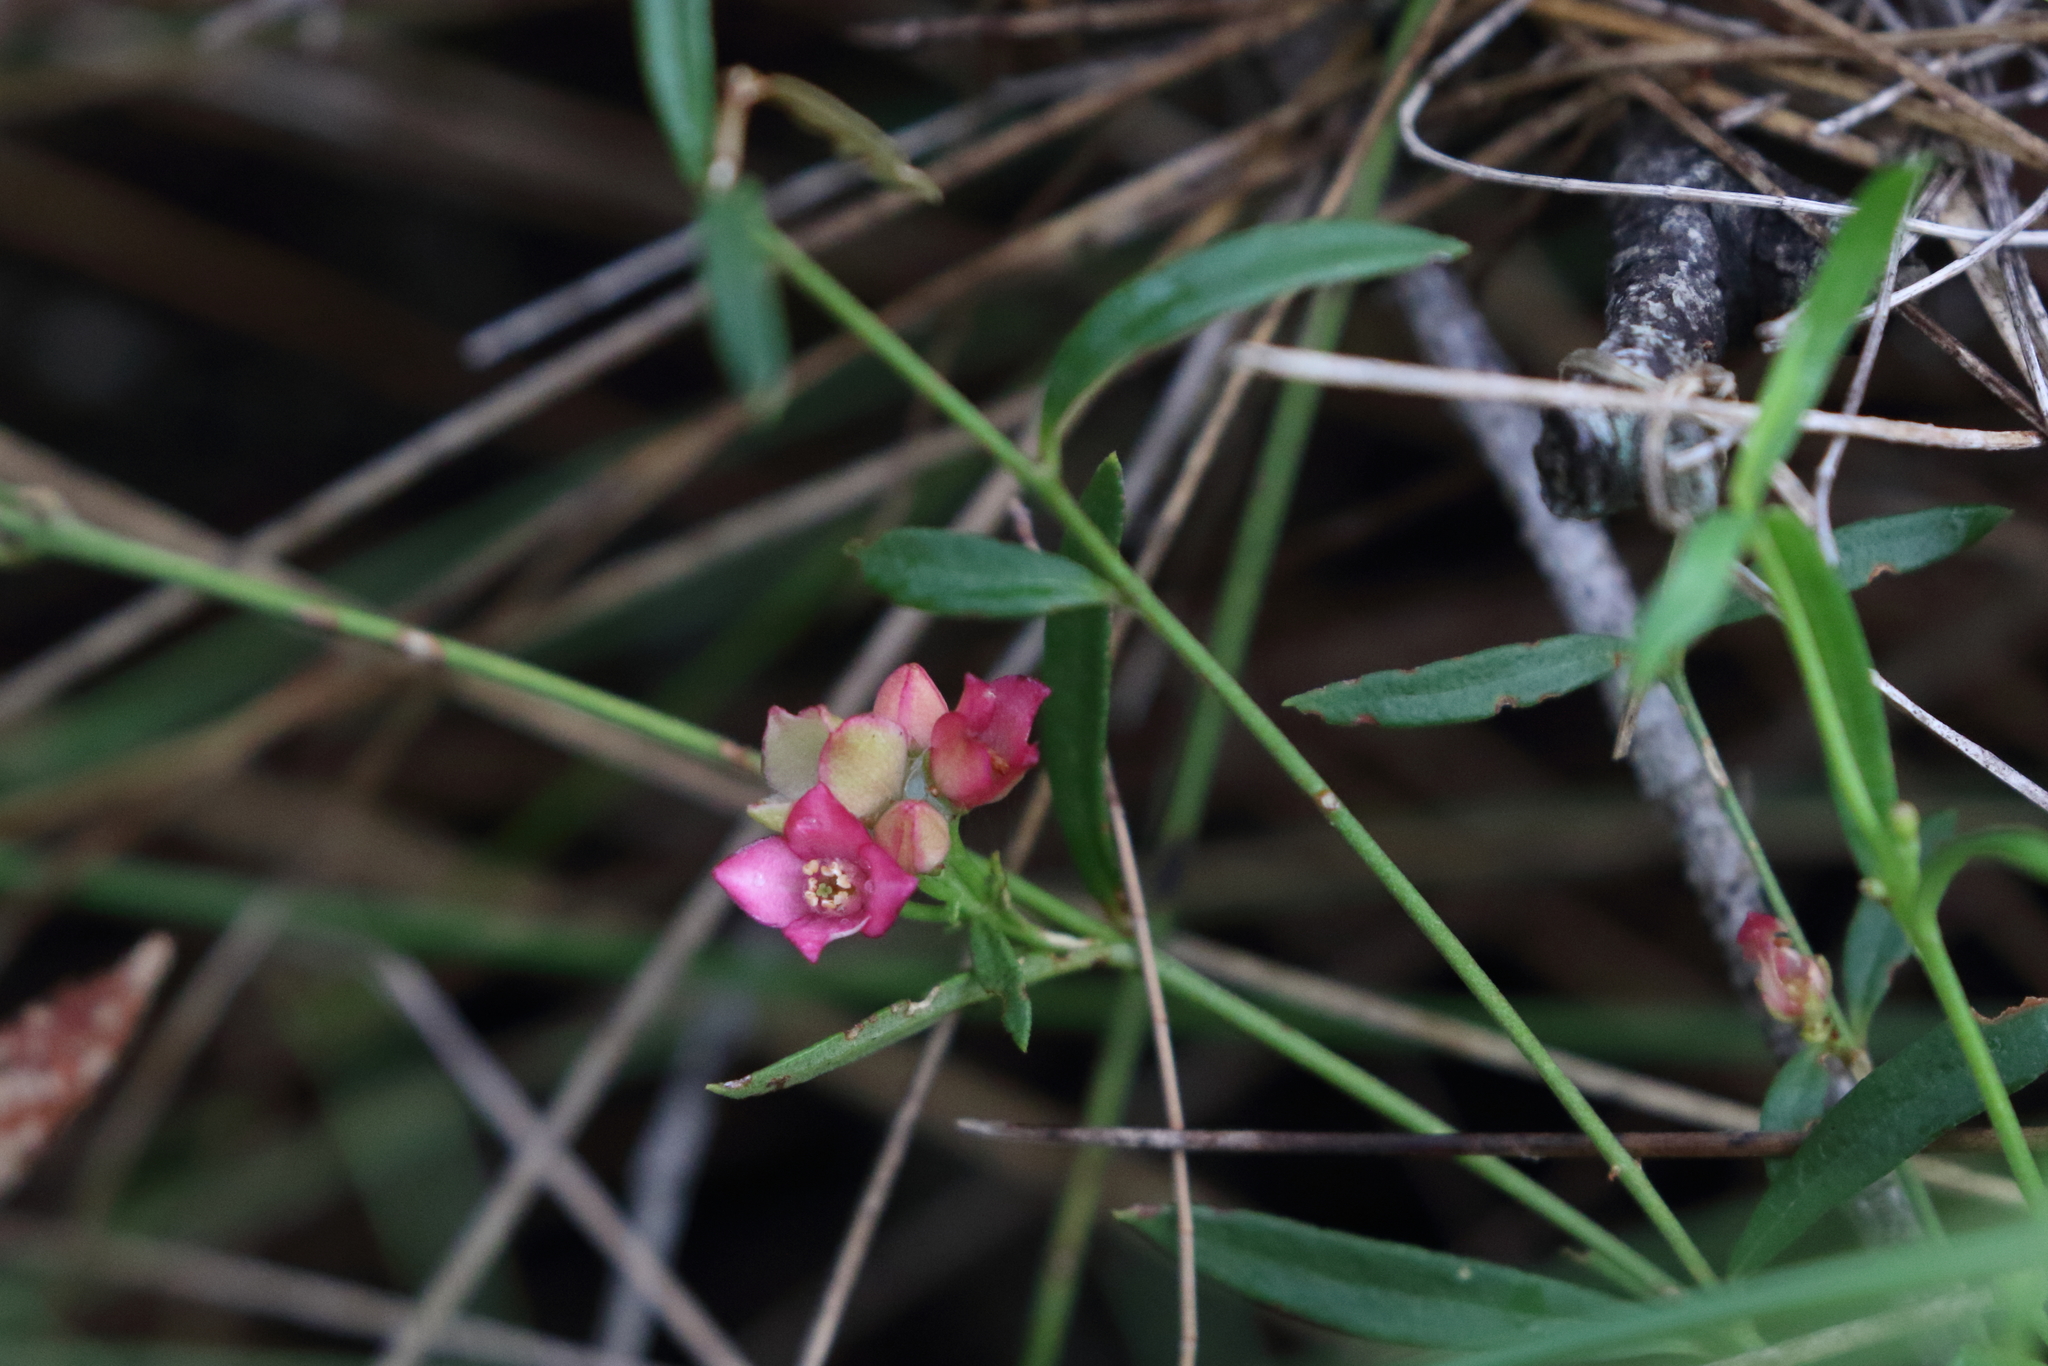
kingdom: Plantae
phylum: Tracheophyta
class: Magnoliopsida
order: Sapindales
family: Rutaceae
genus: Cyanothamnus
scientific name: Cyanothamnus polygalifolius
